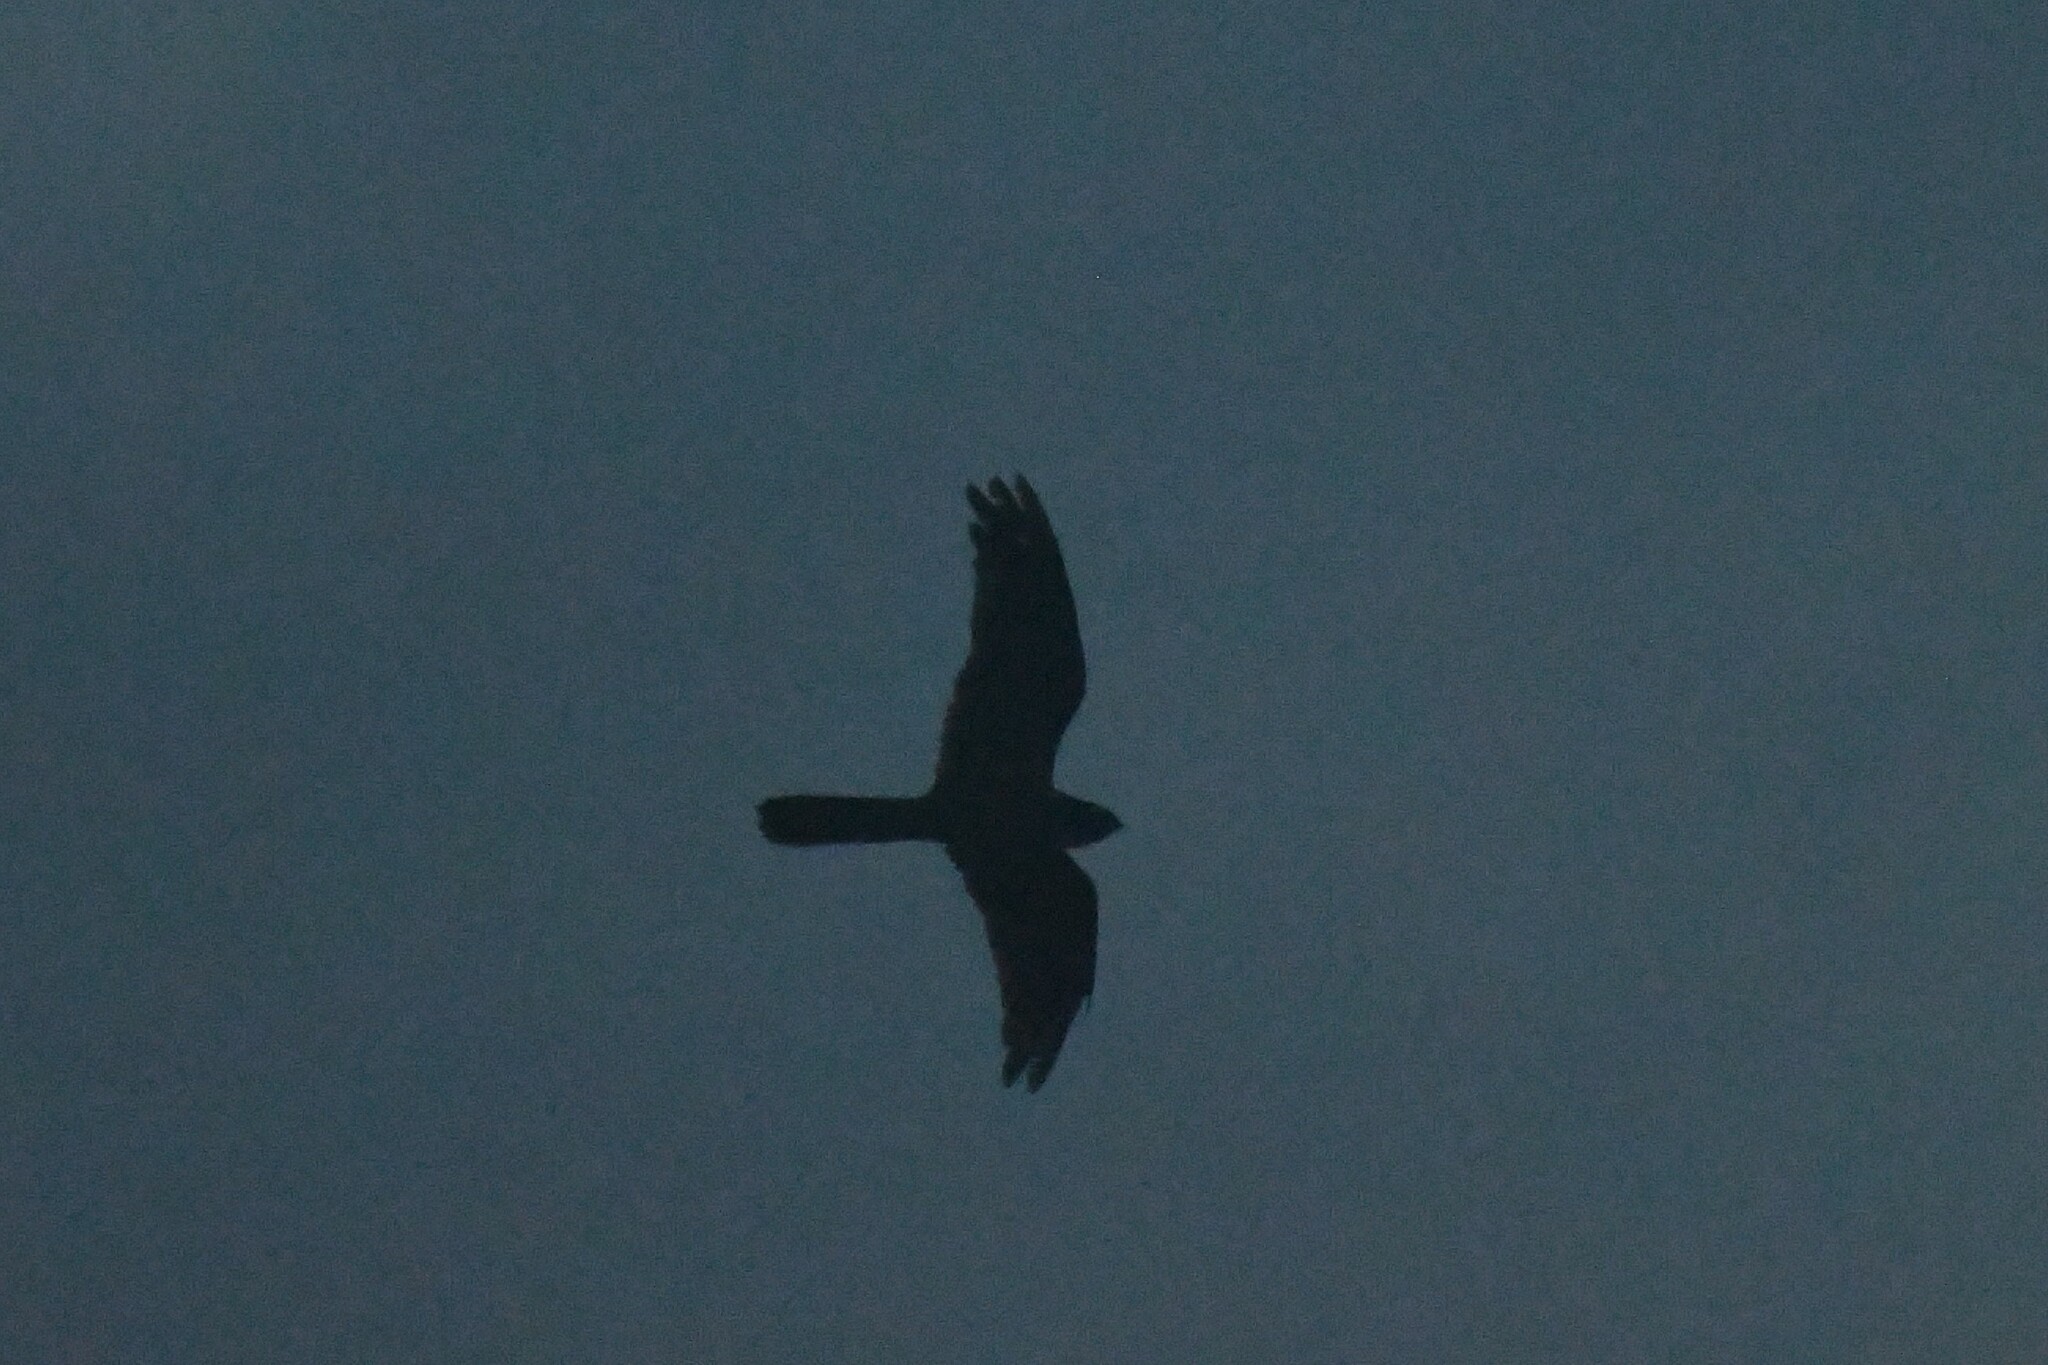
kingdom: Animalia
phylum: Chordata
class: Aves
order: Caprimulgiformes
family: Caprimulgidae
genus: Lyncornis
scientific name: Lyncornis macrotis
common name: Great eared-nightjar
